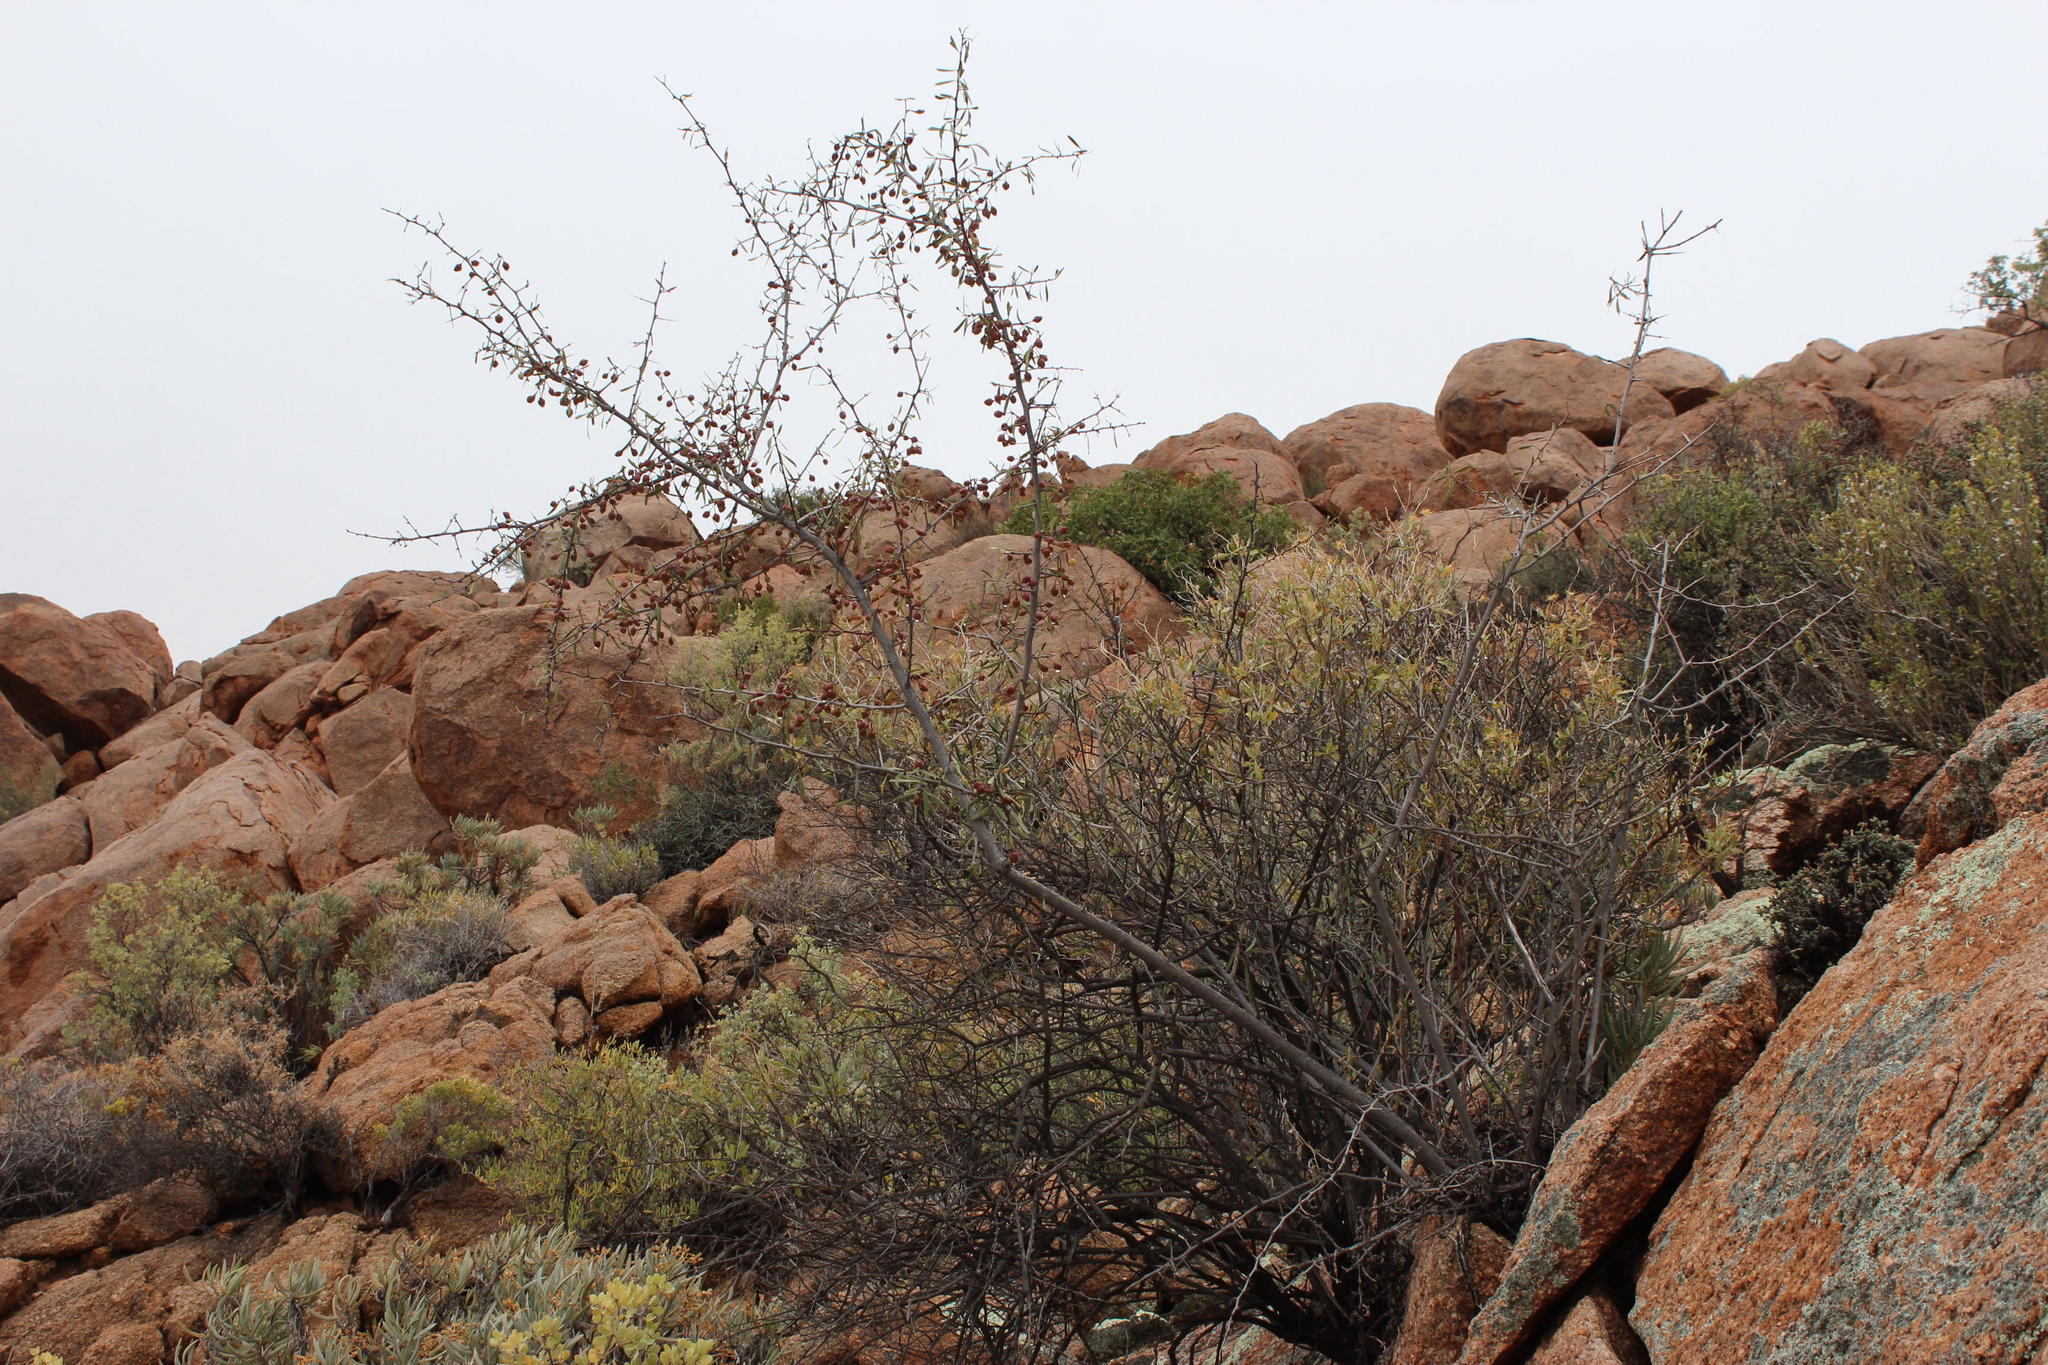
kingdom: Plantae
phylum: Tracheophyta
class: Magnoliopsida
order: Celastrales
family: Celastraceae
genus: Gymnosporia
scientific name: Gymnosporia gariepensis
